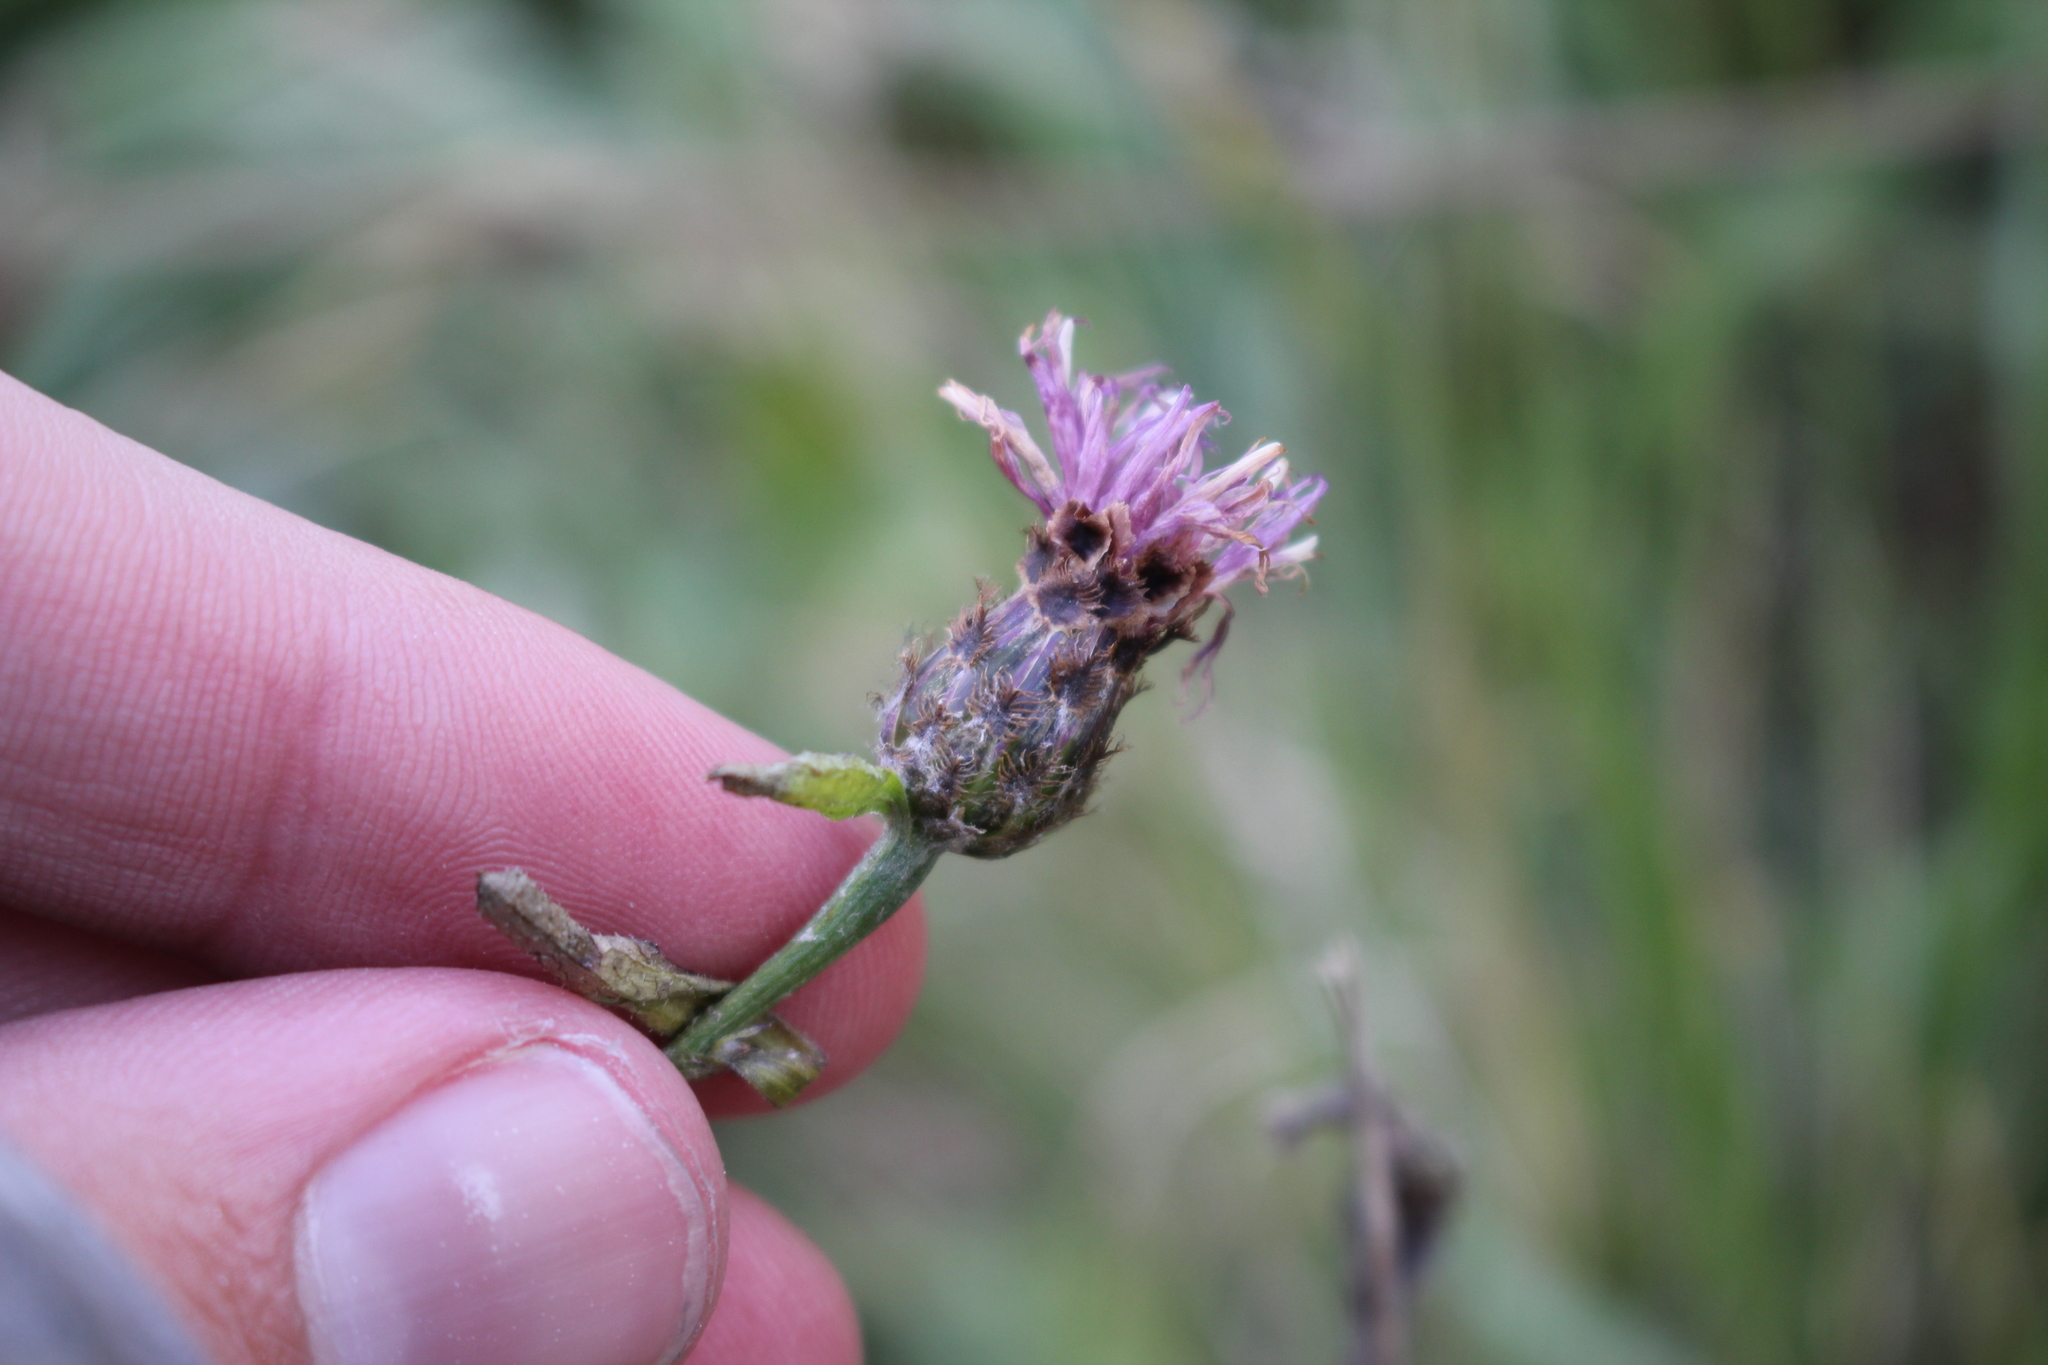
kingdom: Plantae
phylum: Tracheophyta
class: Magnoliopsida
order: Asterales
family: Asteraceae
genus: Centaurea
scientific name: Centaurea moncktonii
